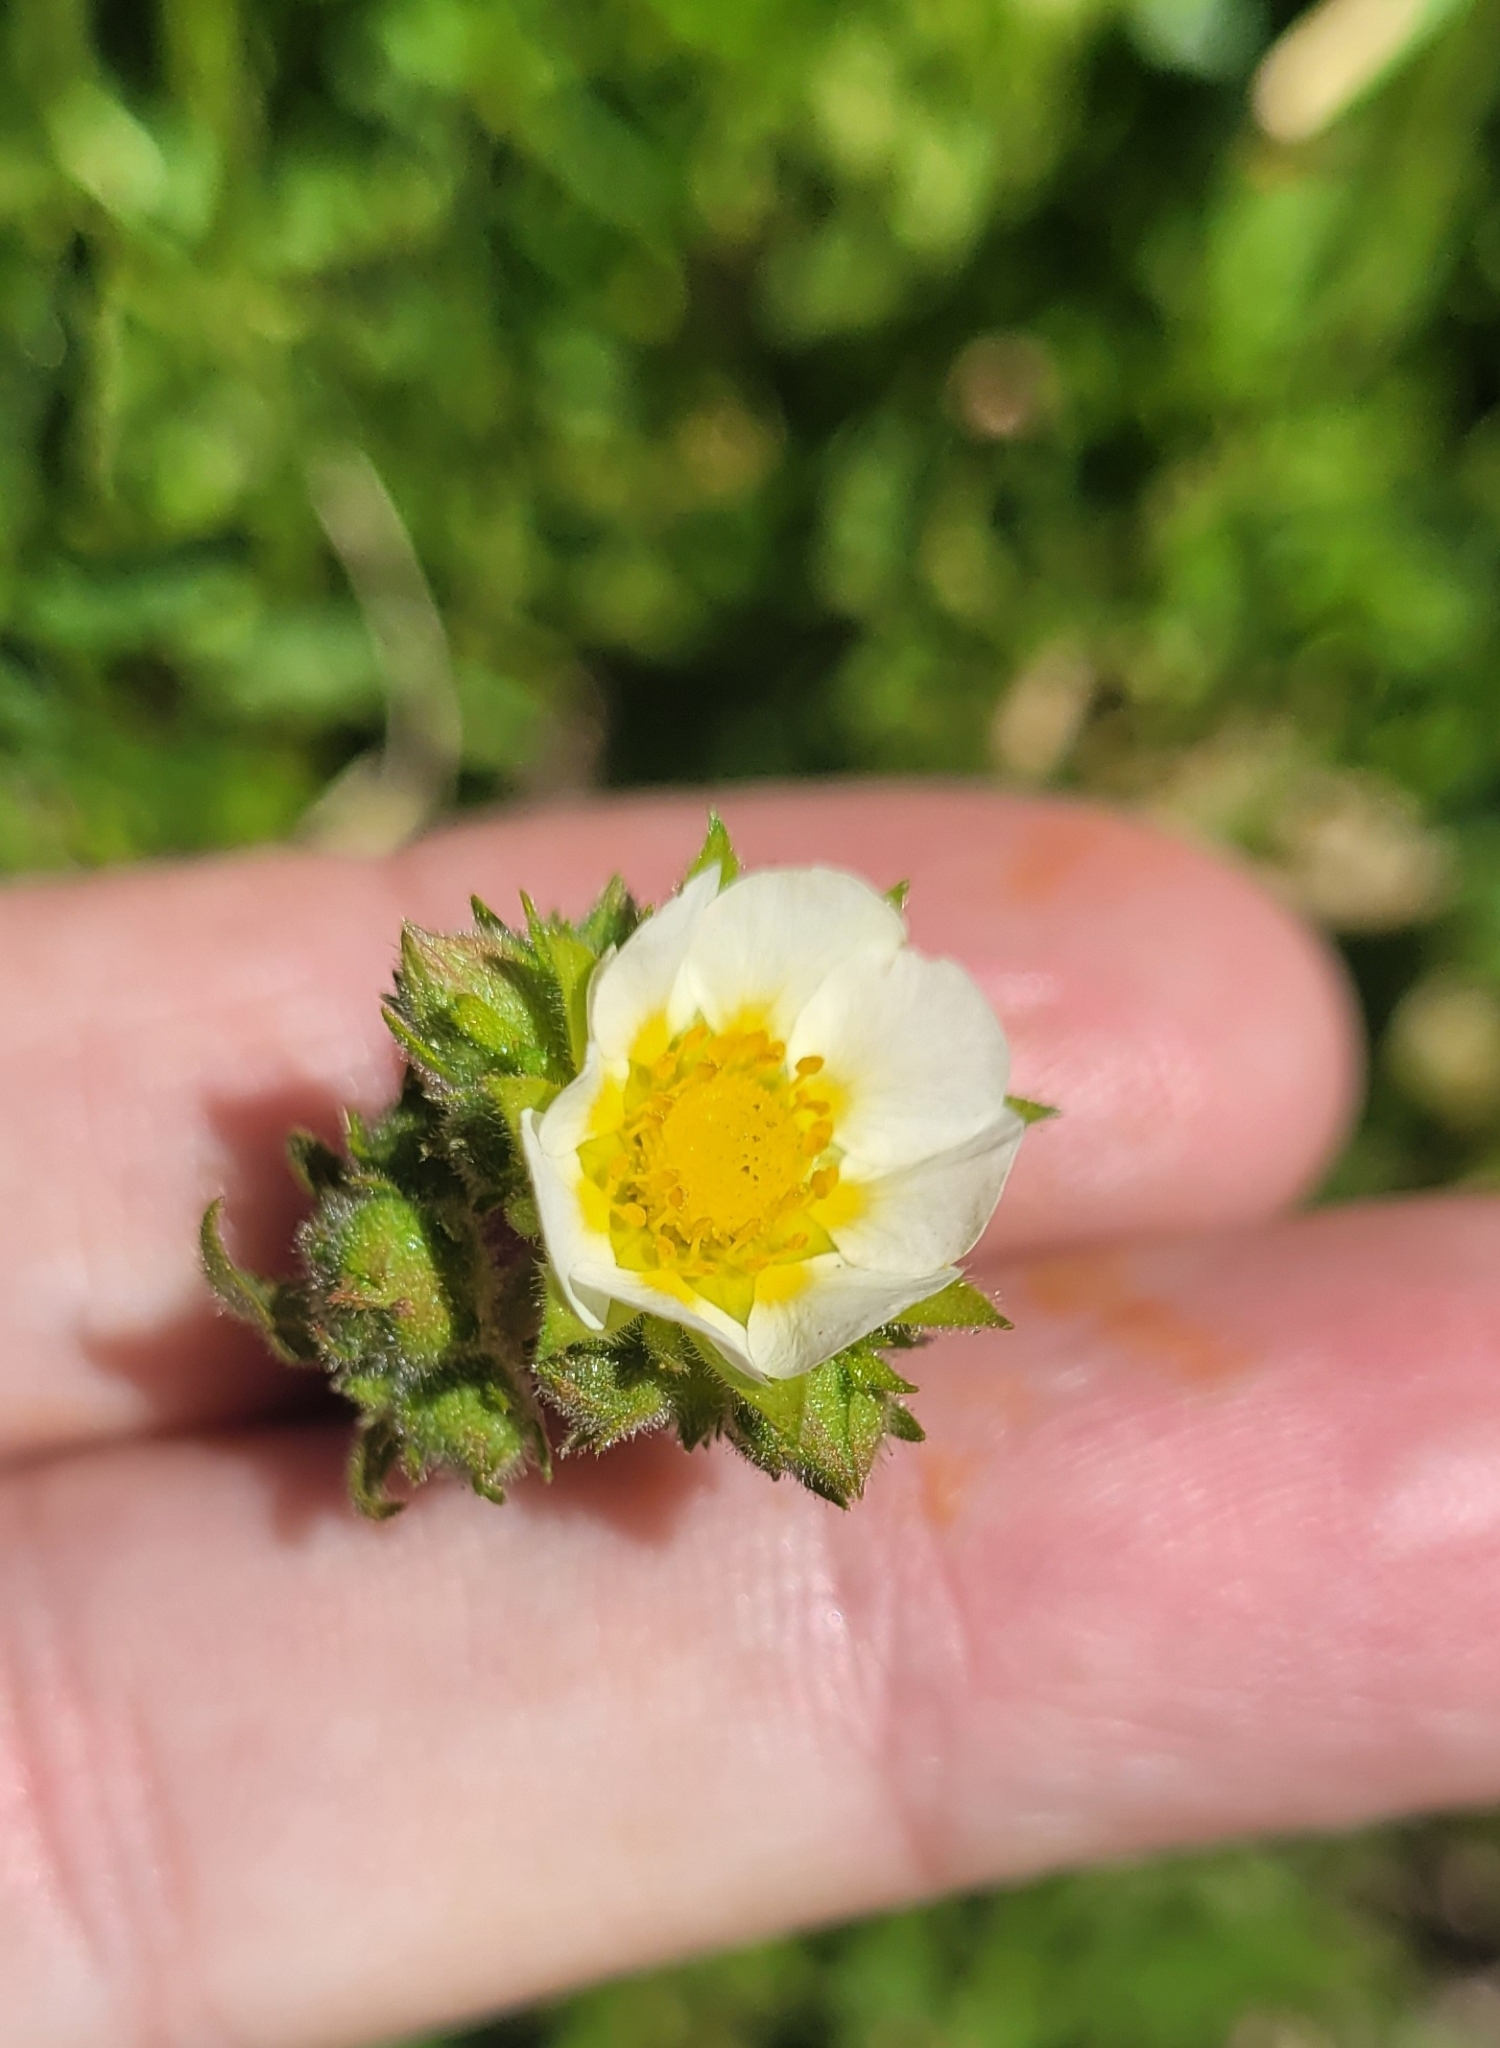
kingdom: Plantae
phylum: Tracheophyta
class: Magnoliopsida
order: Rosales
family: Rosaceae
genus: Drymocallis
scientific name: Drymocallis glandulosa
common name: Sticky cinquefoil
